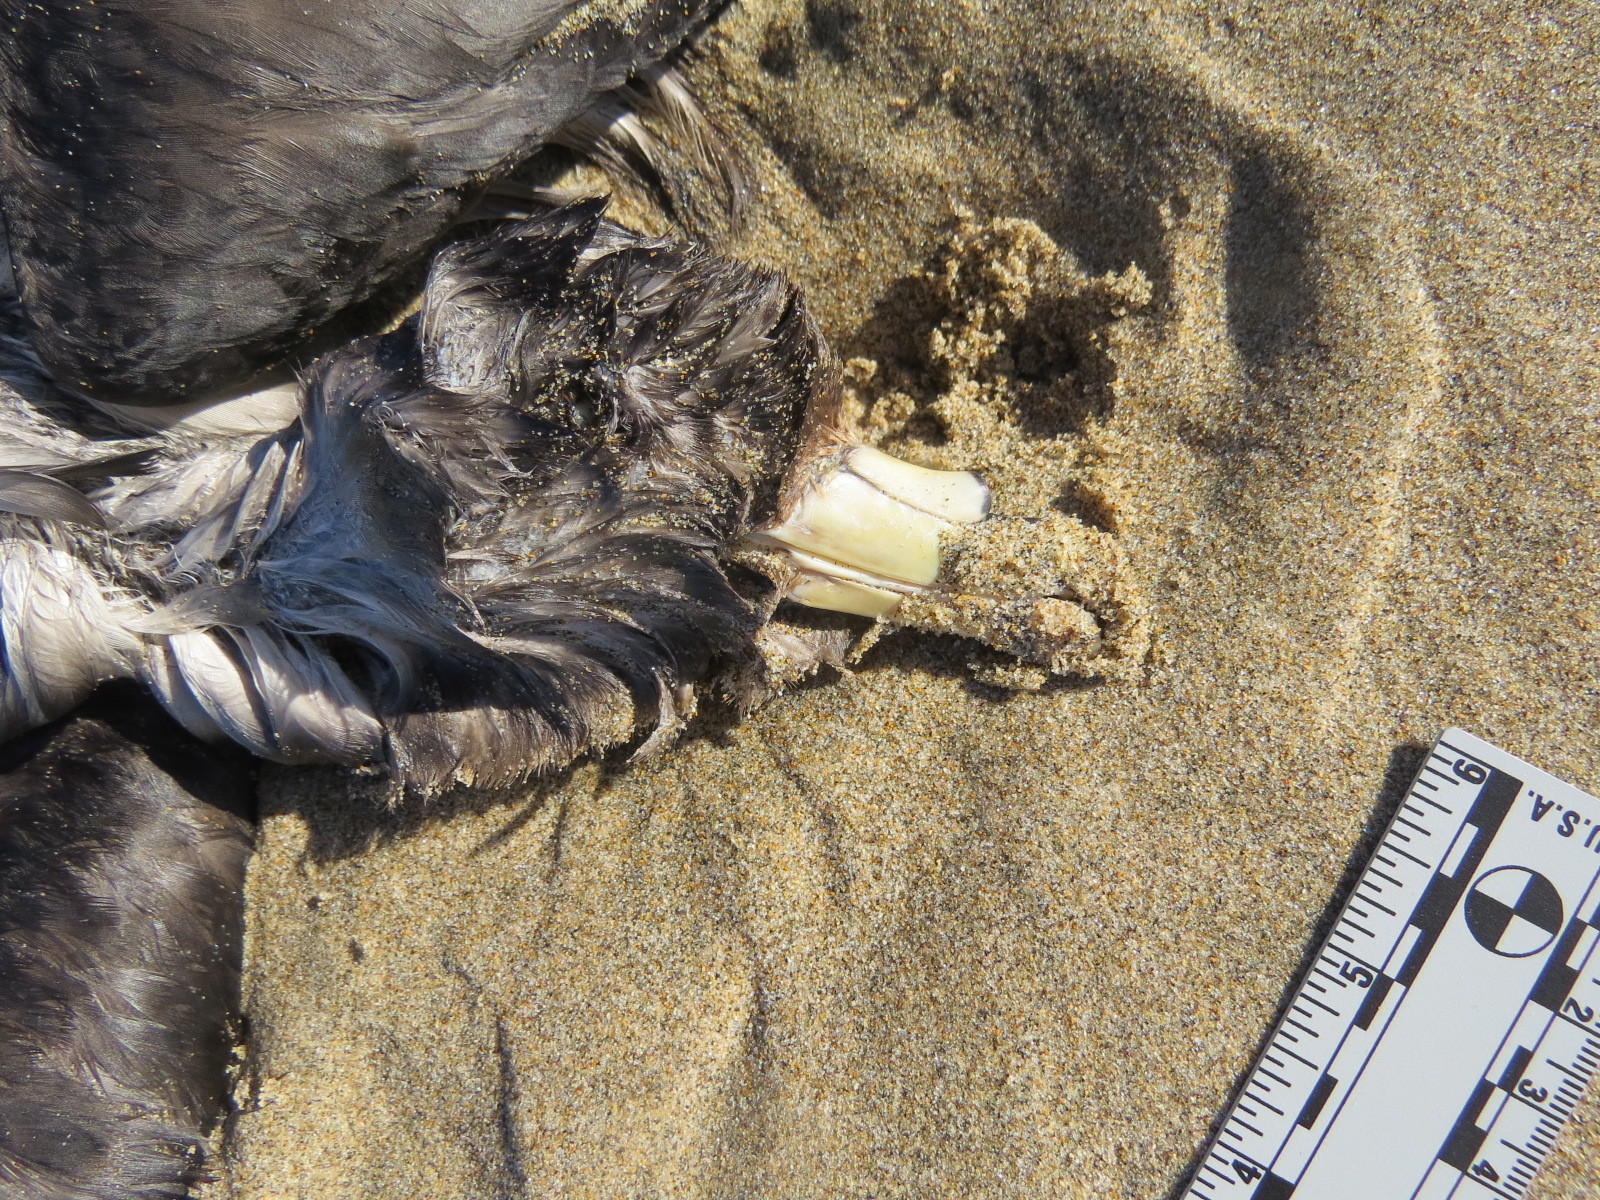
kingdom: Animalia
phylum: Chordata
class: Aves
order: Procellariiformes
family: Procellariidae
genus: Fulmarus
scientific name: Fulmarus glacialis
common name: Northern fulmar
